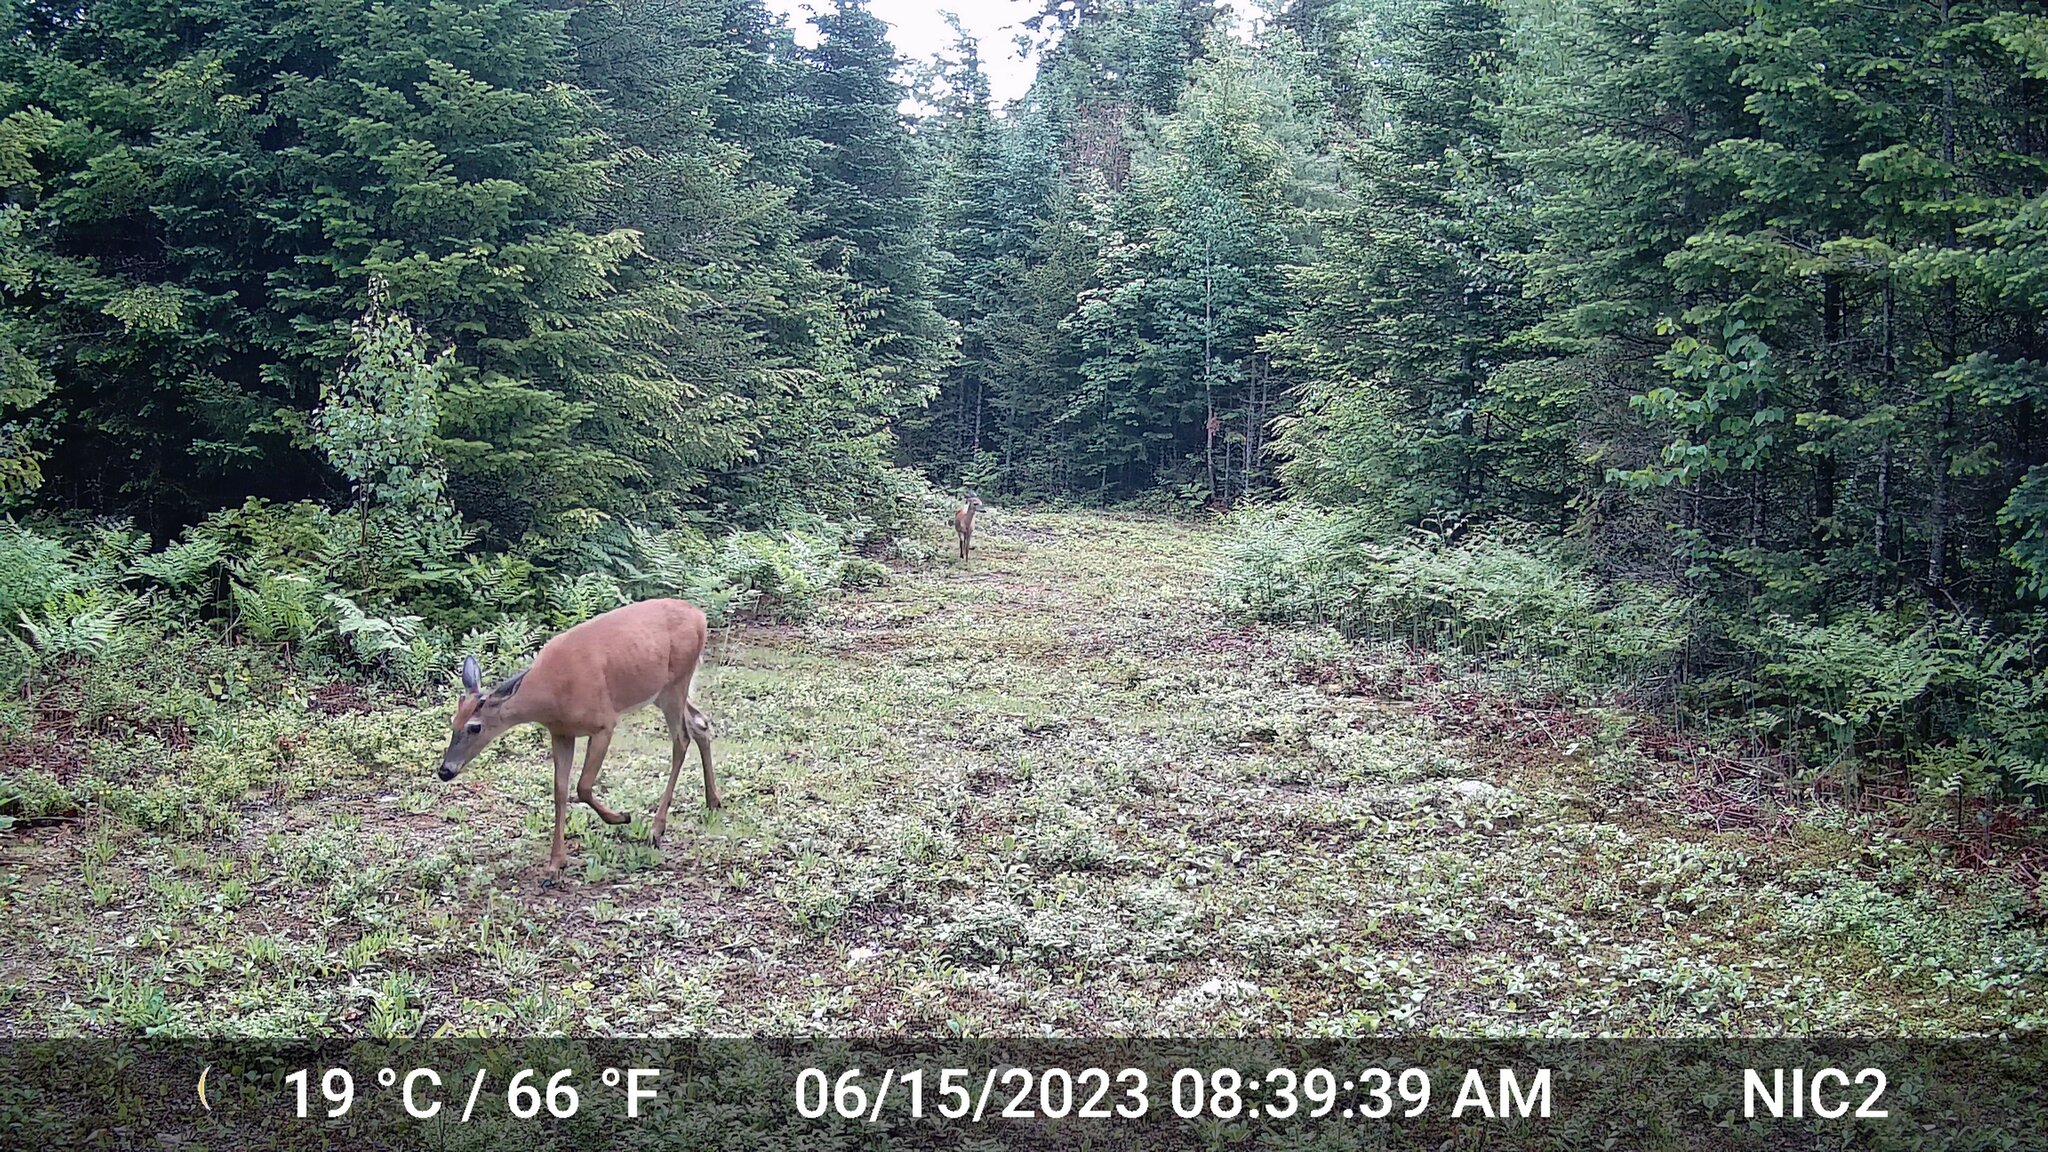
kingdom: Animalia
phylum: Chordata
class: Mammalia
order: Artiodactyla
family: Cervidae
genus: Odocoileus
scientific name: Odocoileus virginianus
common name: White-tailed deer
